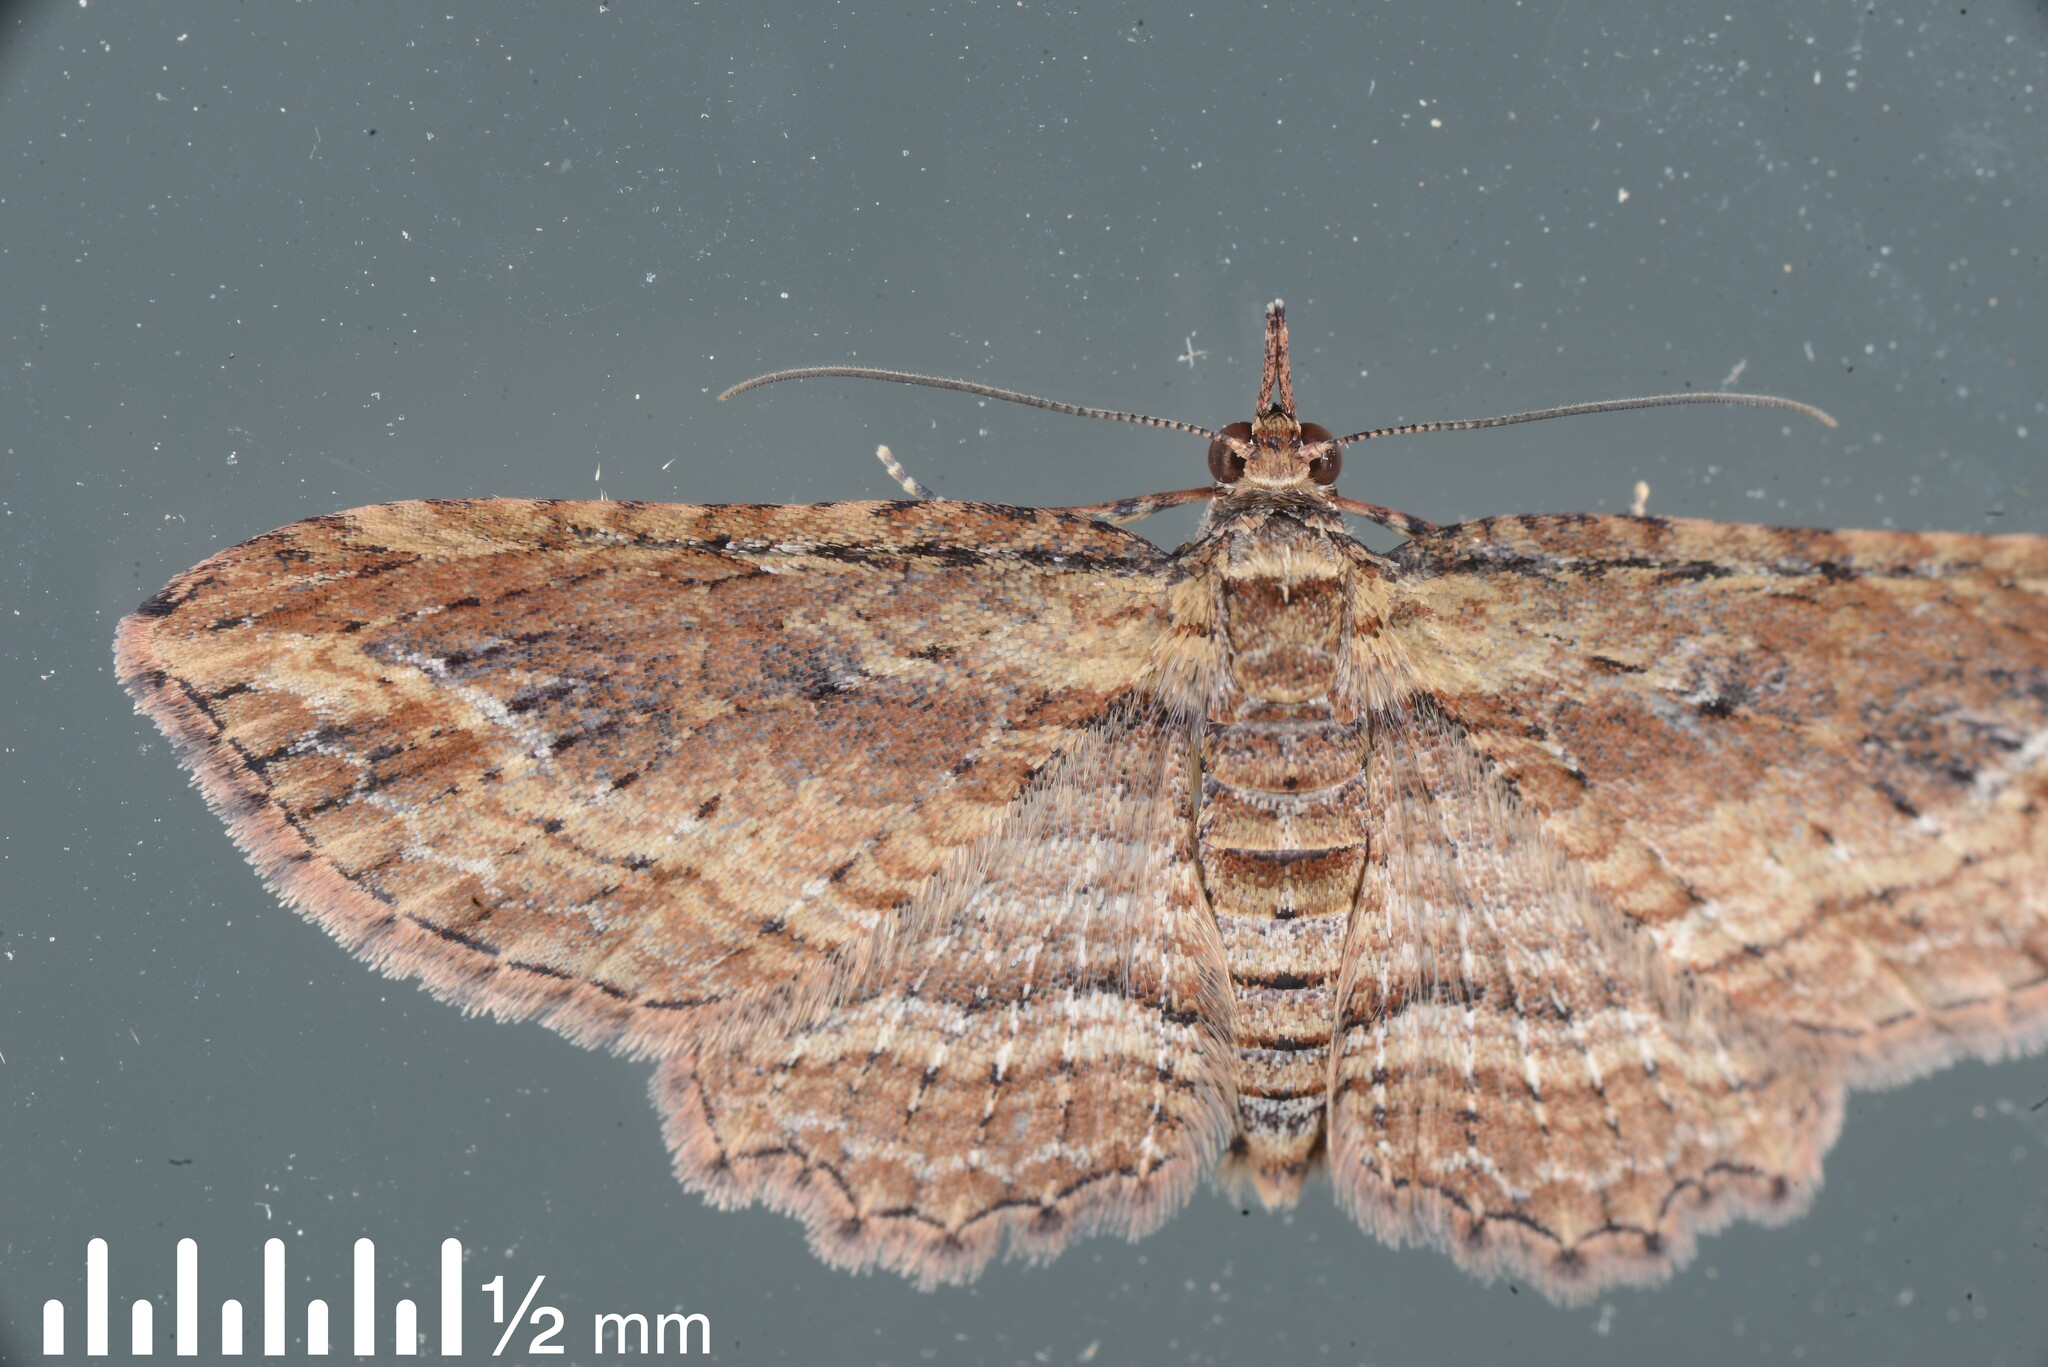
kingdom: Animalia
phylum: Arthropoda
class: Insecta
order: Lepidoptera
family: Geometridae
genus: Chloroclystis
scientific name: Chloroclystis filata
